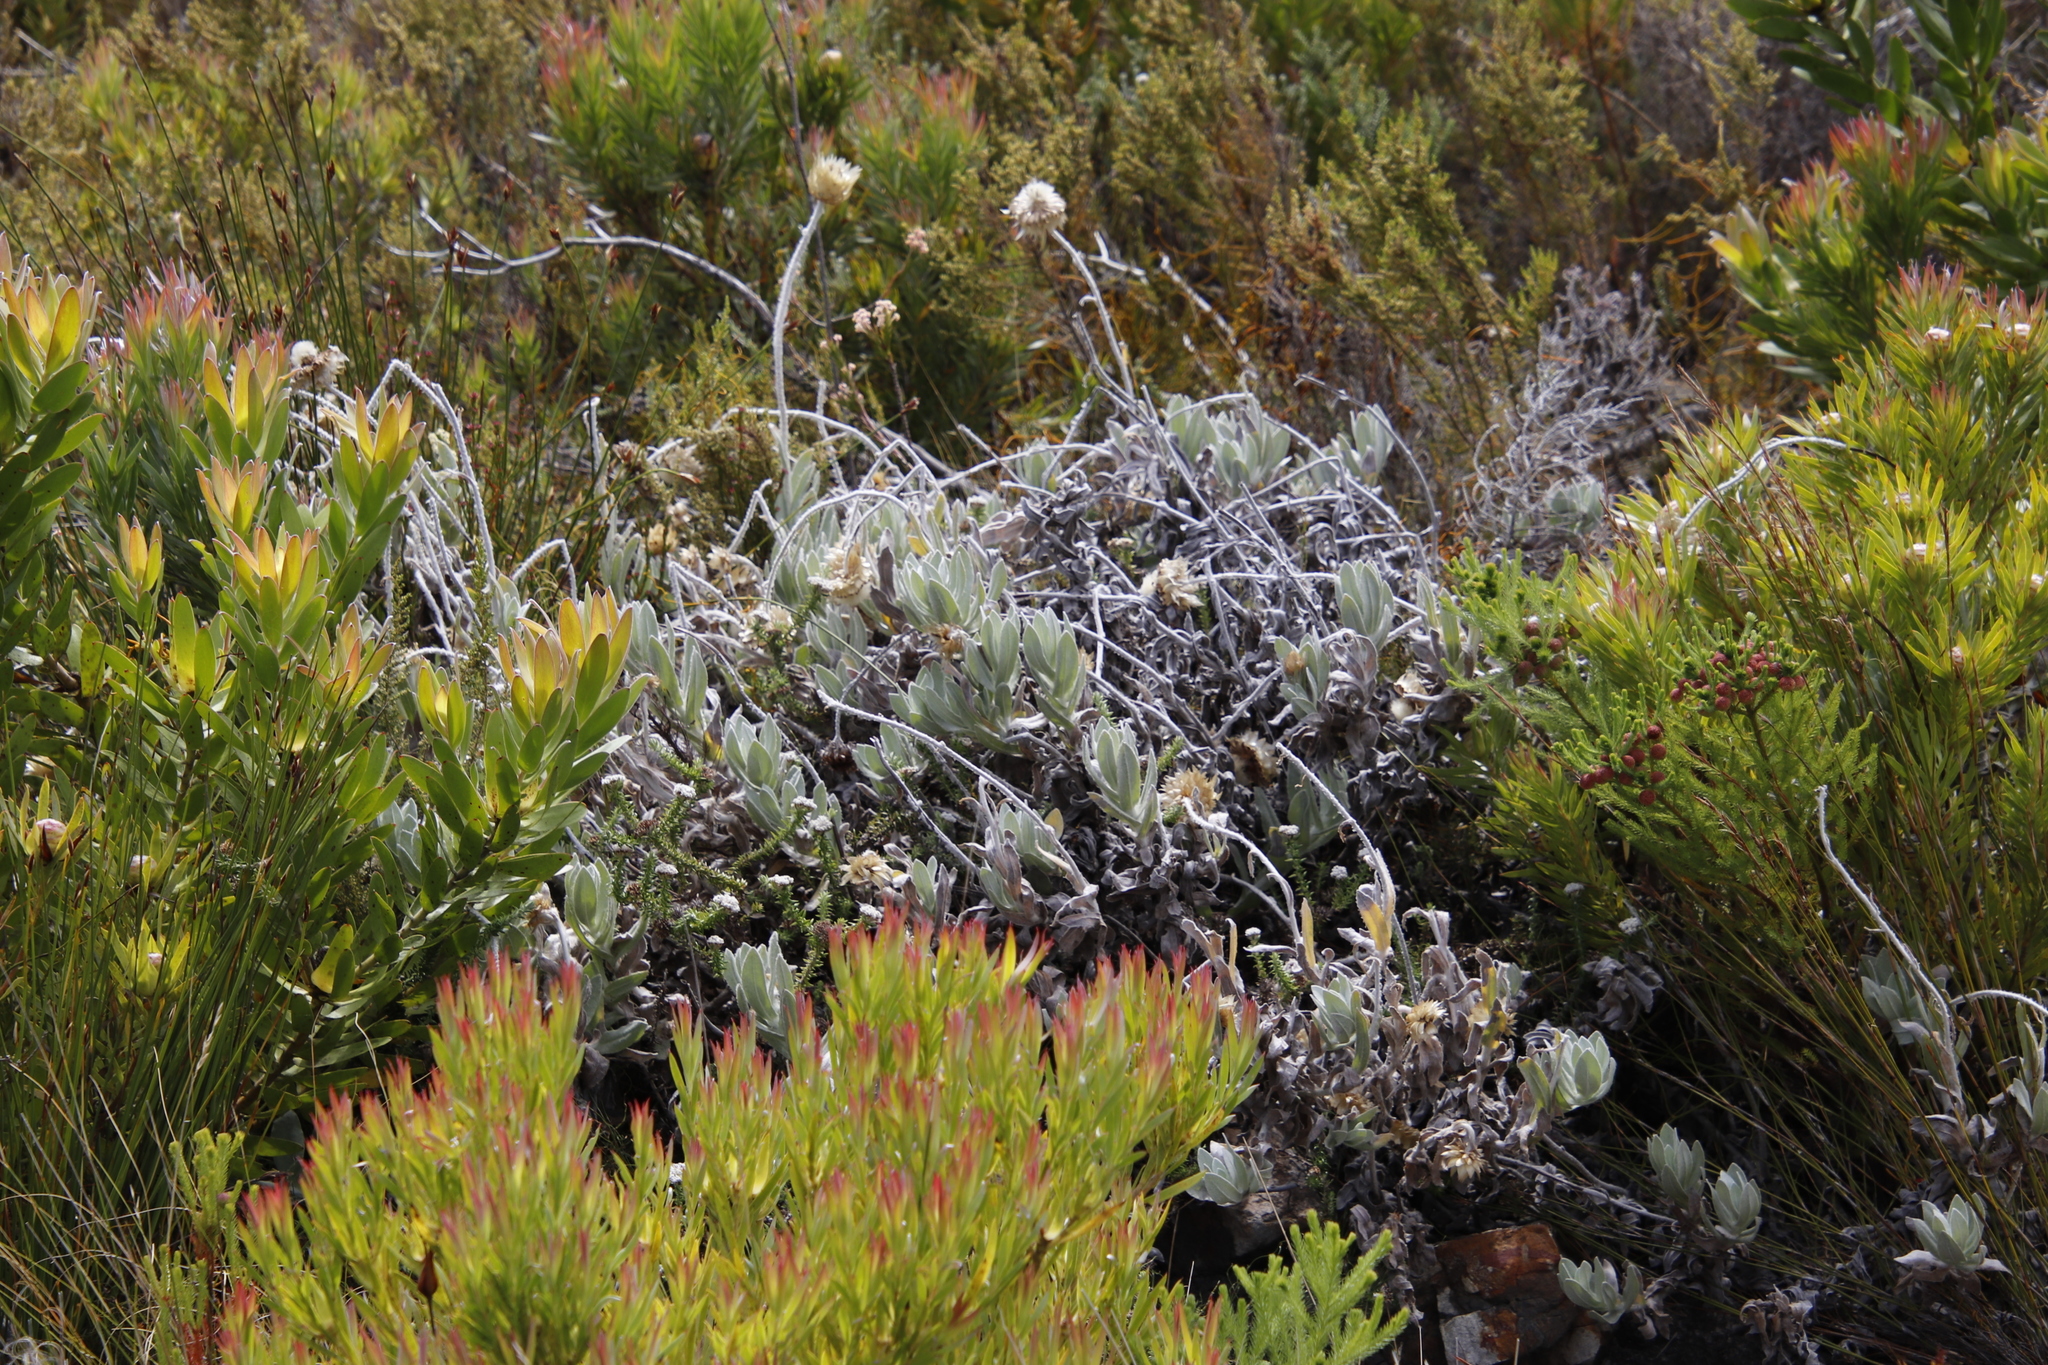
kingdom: Plantae
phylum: Tracheophyta
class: Magnoliopsida
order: Asterales
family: Asteraceae
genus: Syncarpha
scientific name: Syncarpha speciosissima
